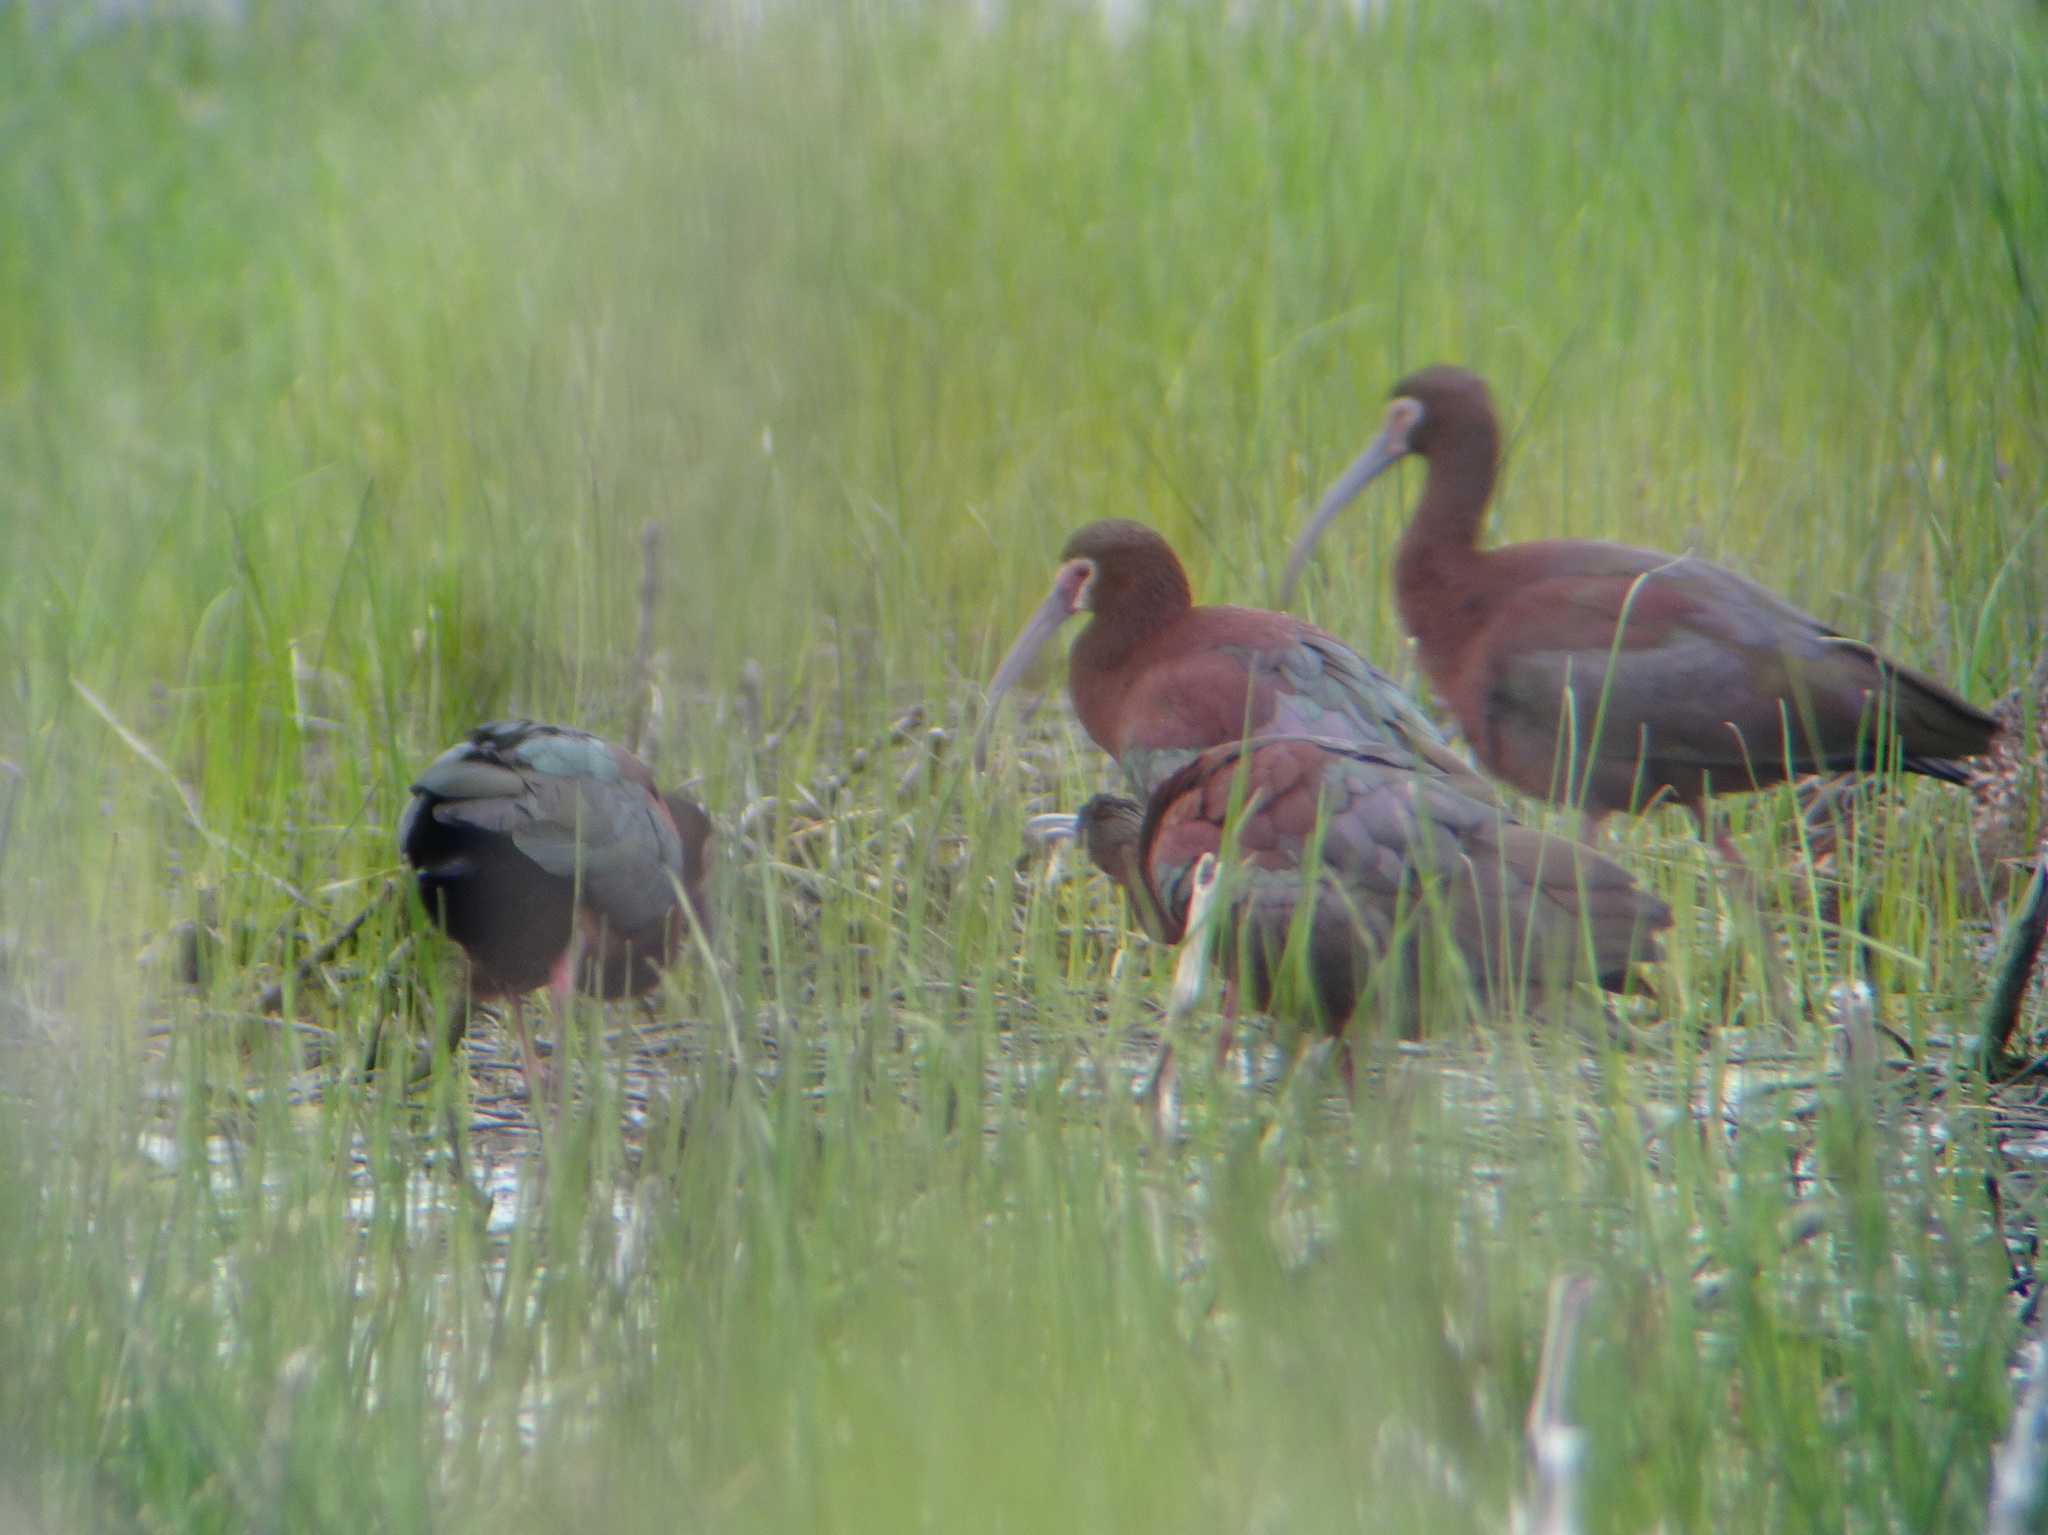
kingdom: Animalia
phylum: Chordata
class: Aves
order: Pelecaniformes
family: Threskiornithidae
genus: Plegadis
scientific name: Plegadis chihi
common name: White-faced ibis
